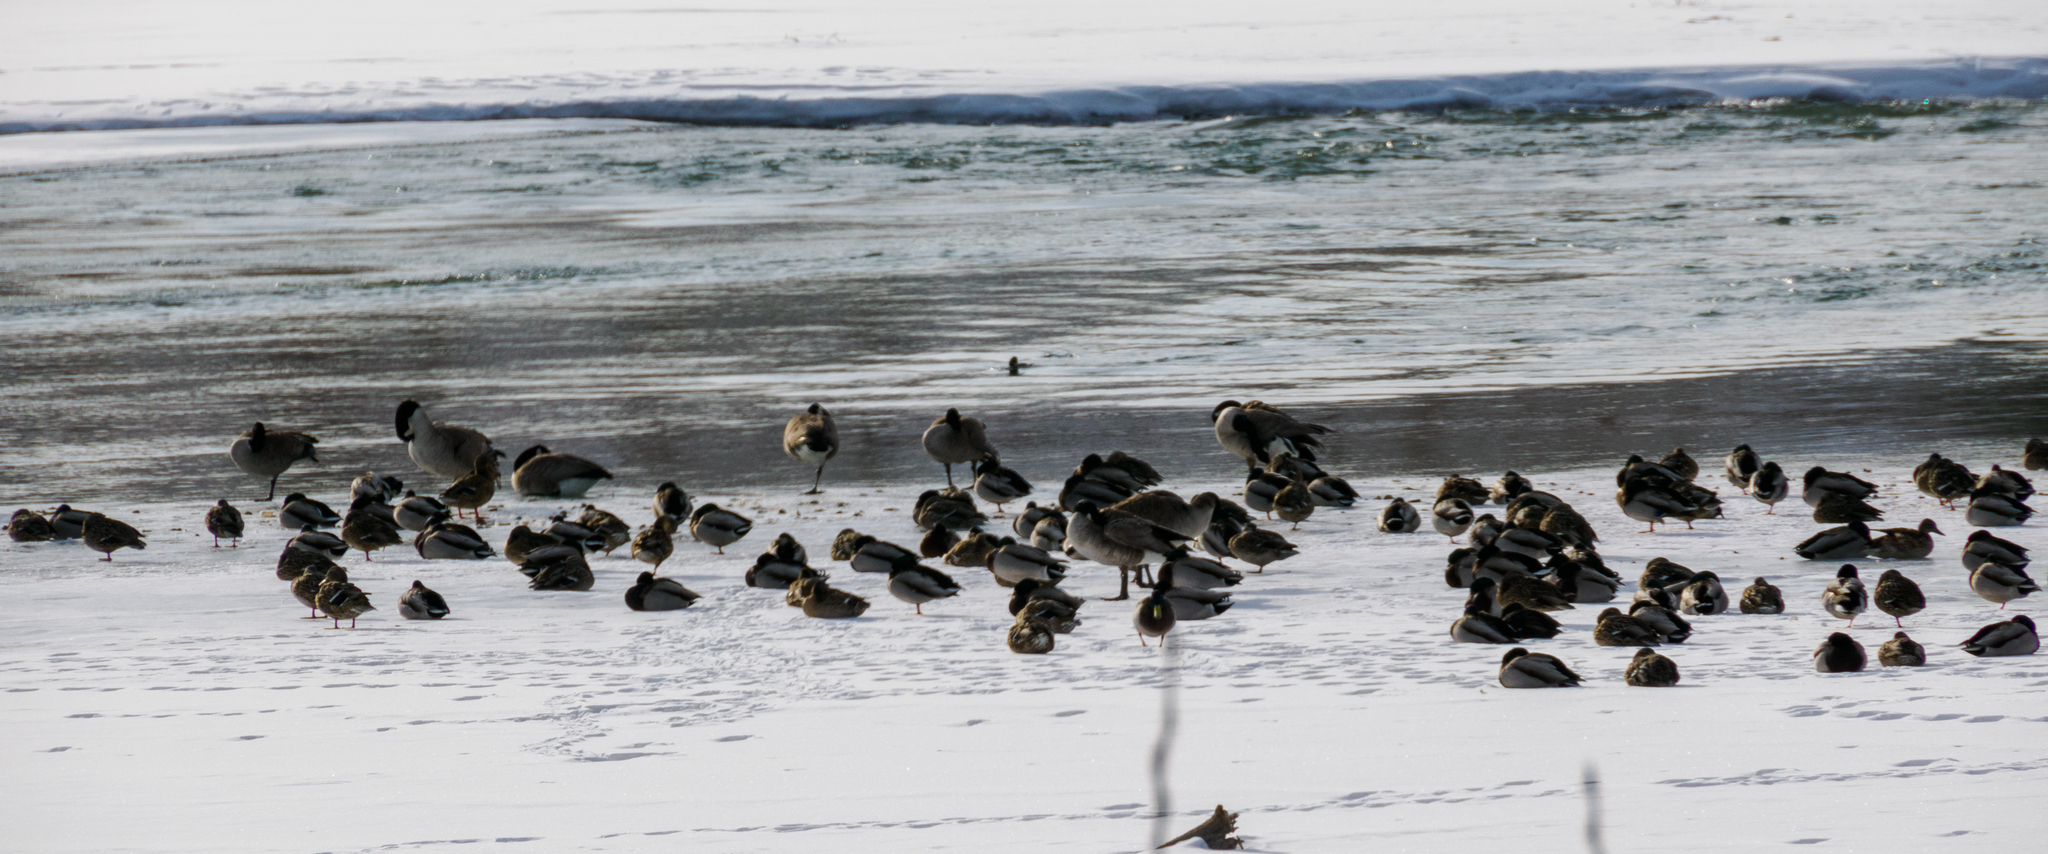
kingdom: Animalia
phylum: Chordata
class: Aves
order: Anseriformes
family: Anatidae
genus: Anas
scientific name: Anas platyrhynchos
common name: Mallard
